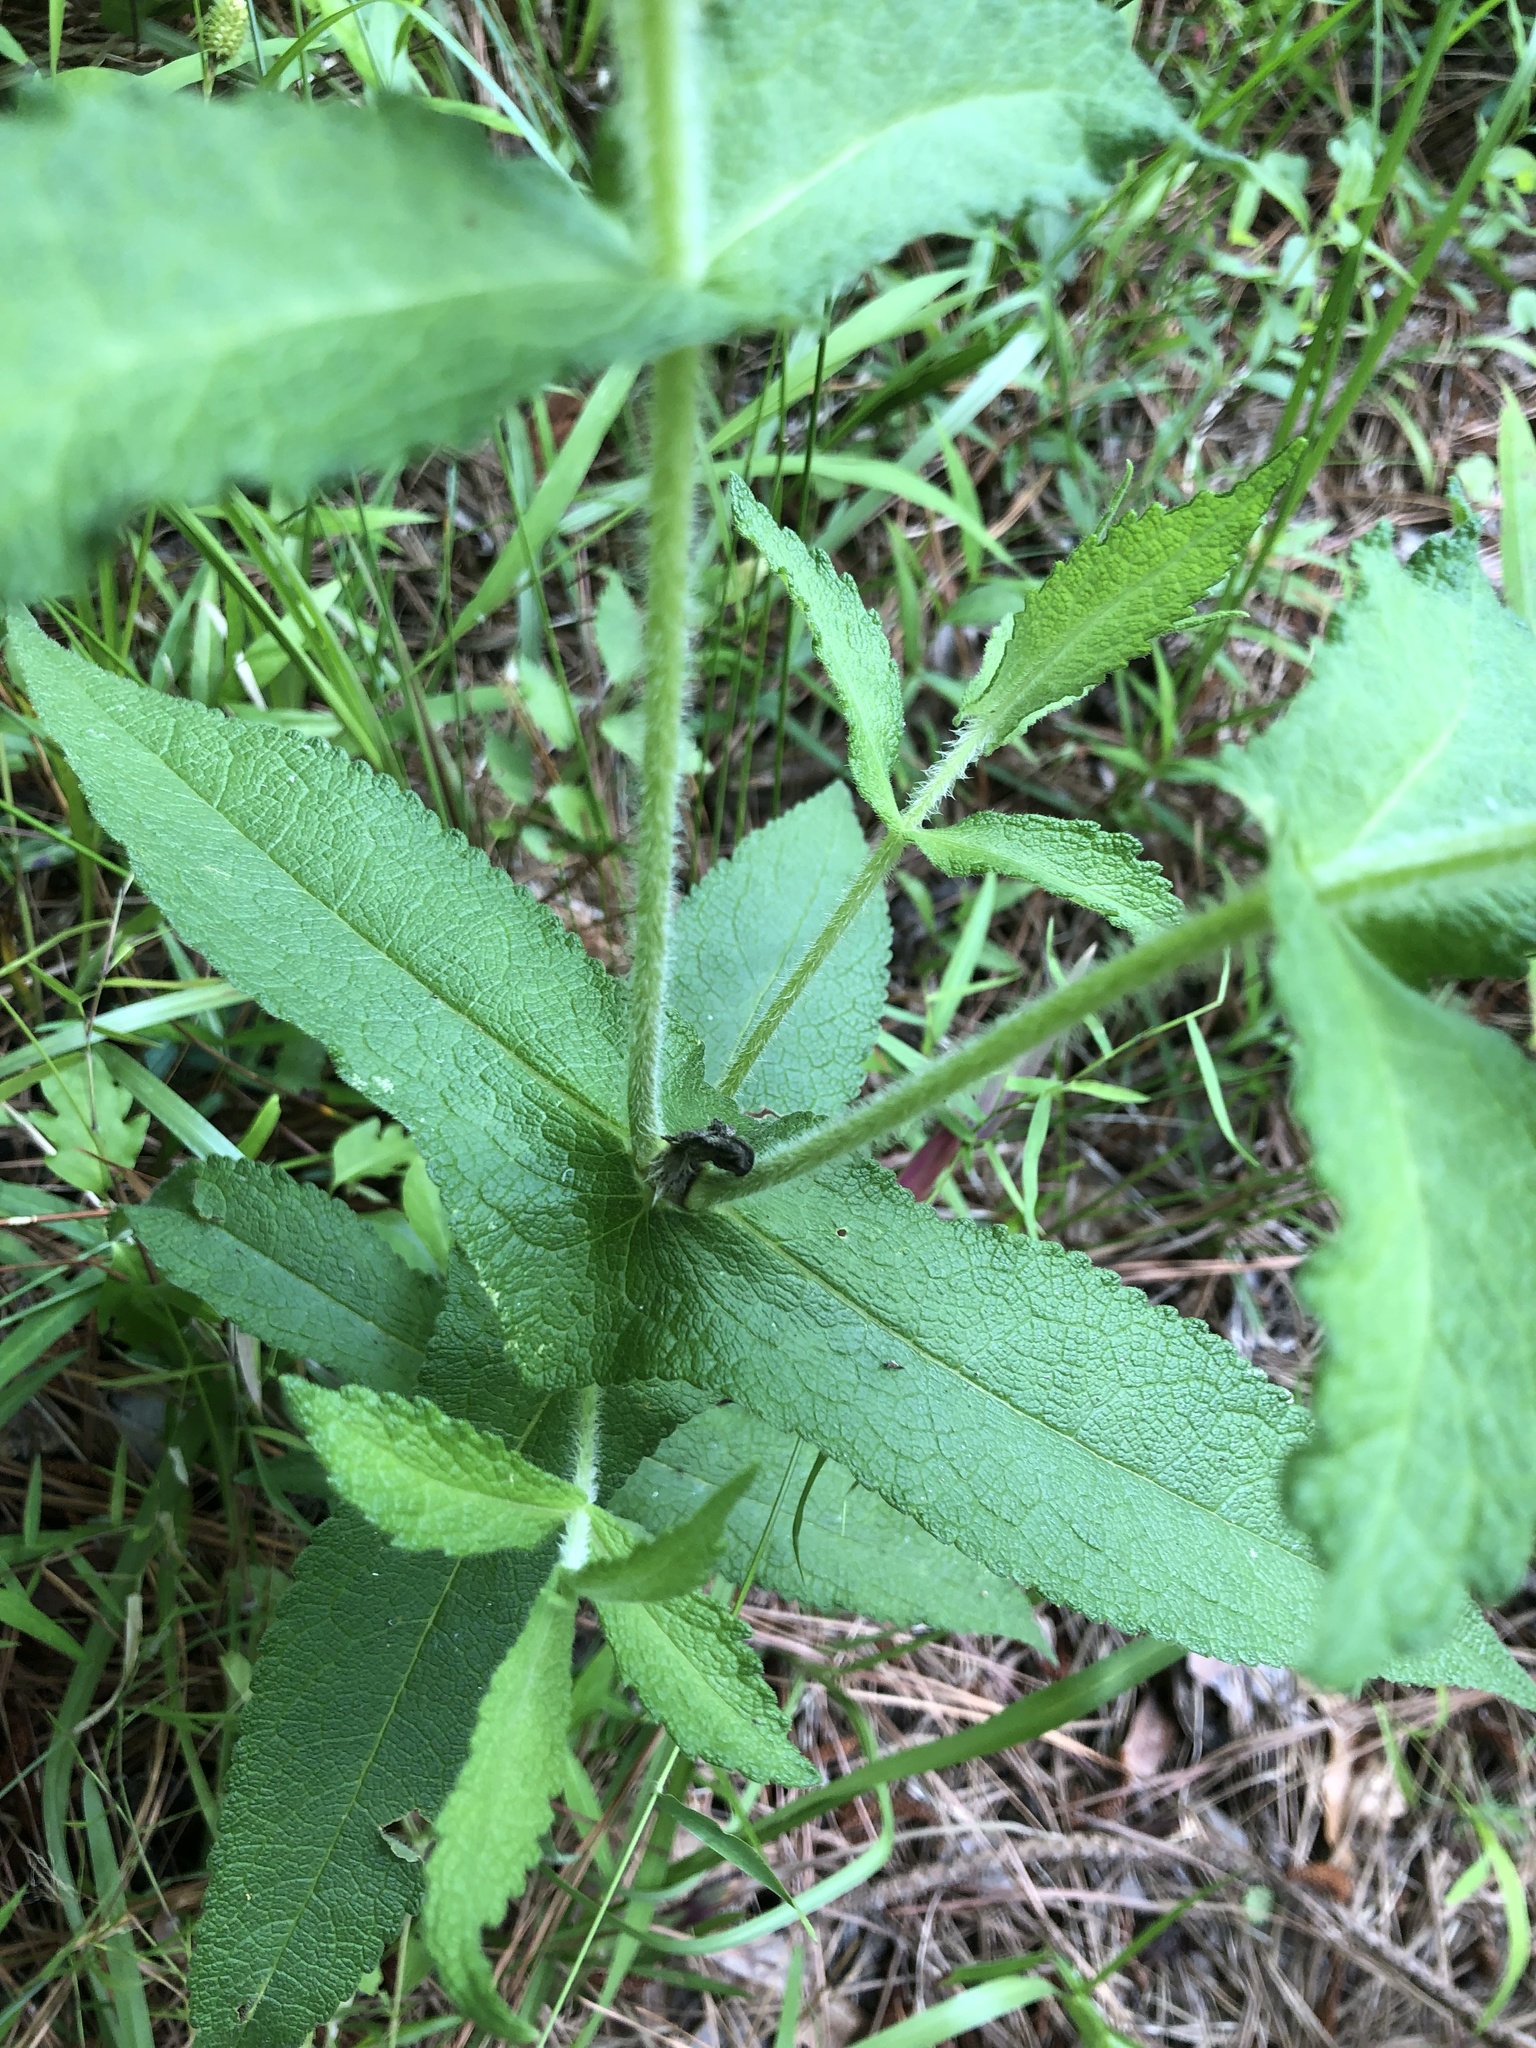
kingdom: Plantae
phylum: Tracheophyta
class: Magnoliopsida
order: Asterales
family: Asteraceae
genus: Eupatorium
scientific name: Eupatorium perfoliatum
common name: Boneset
